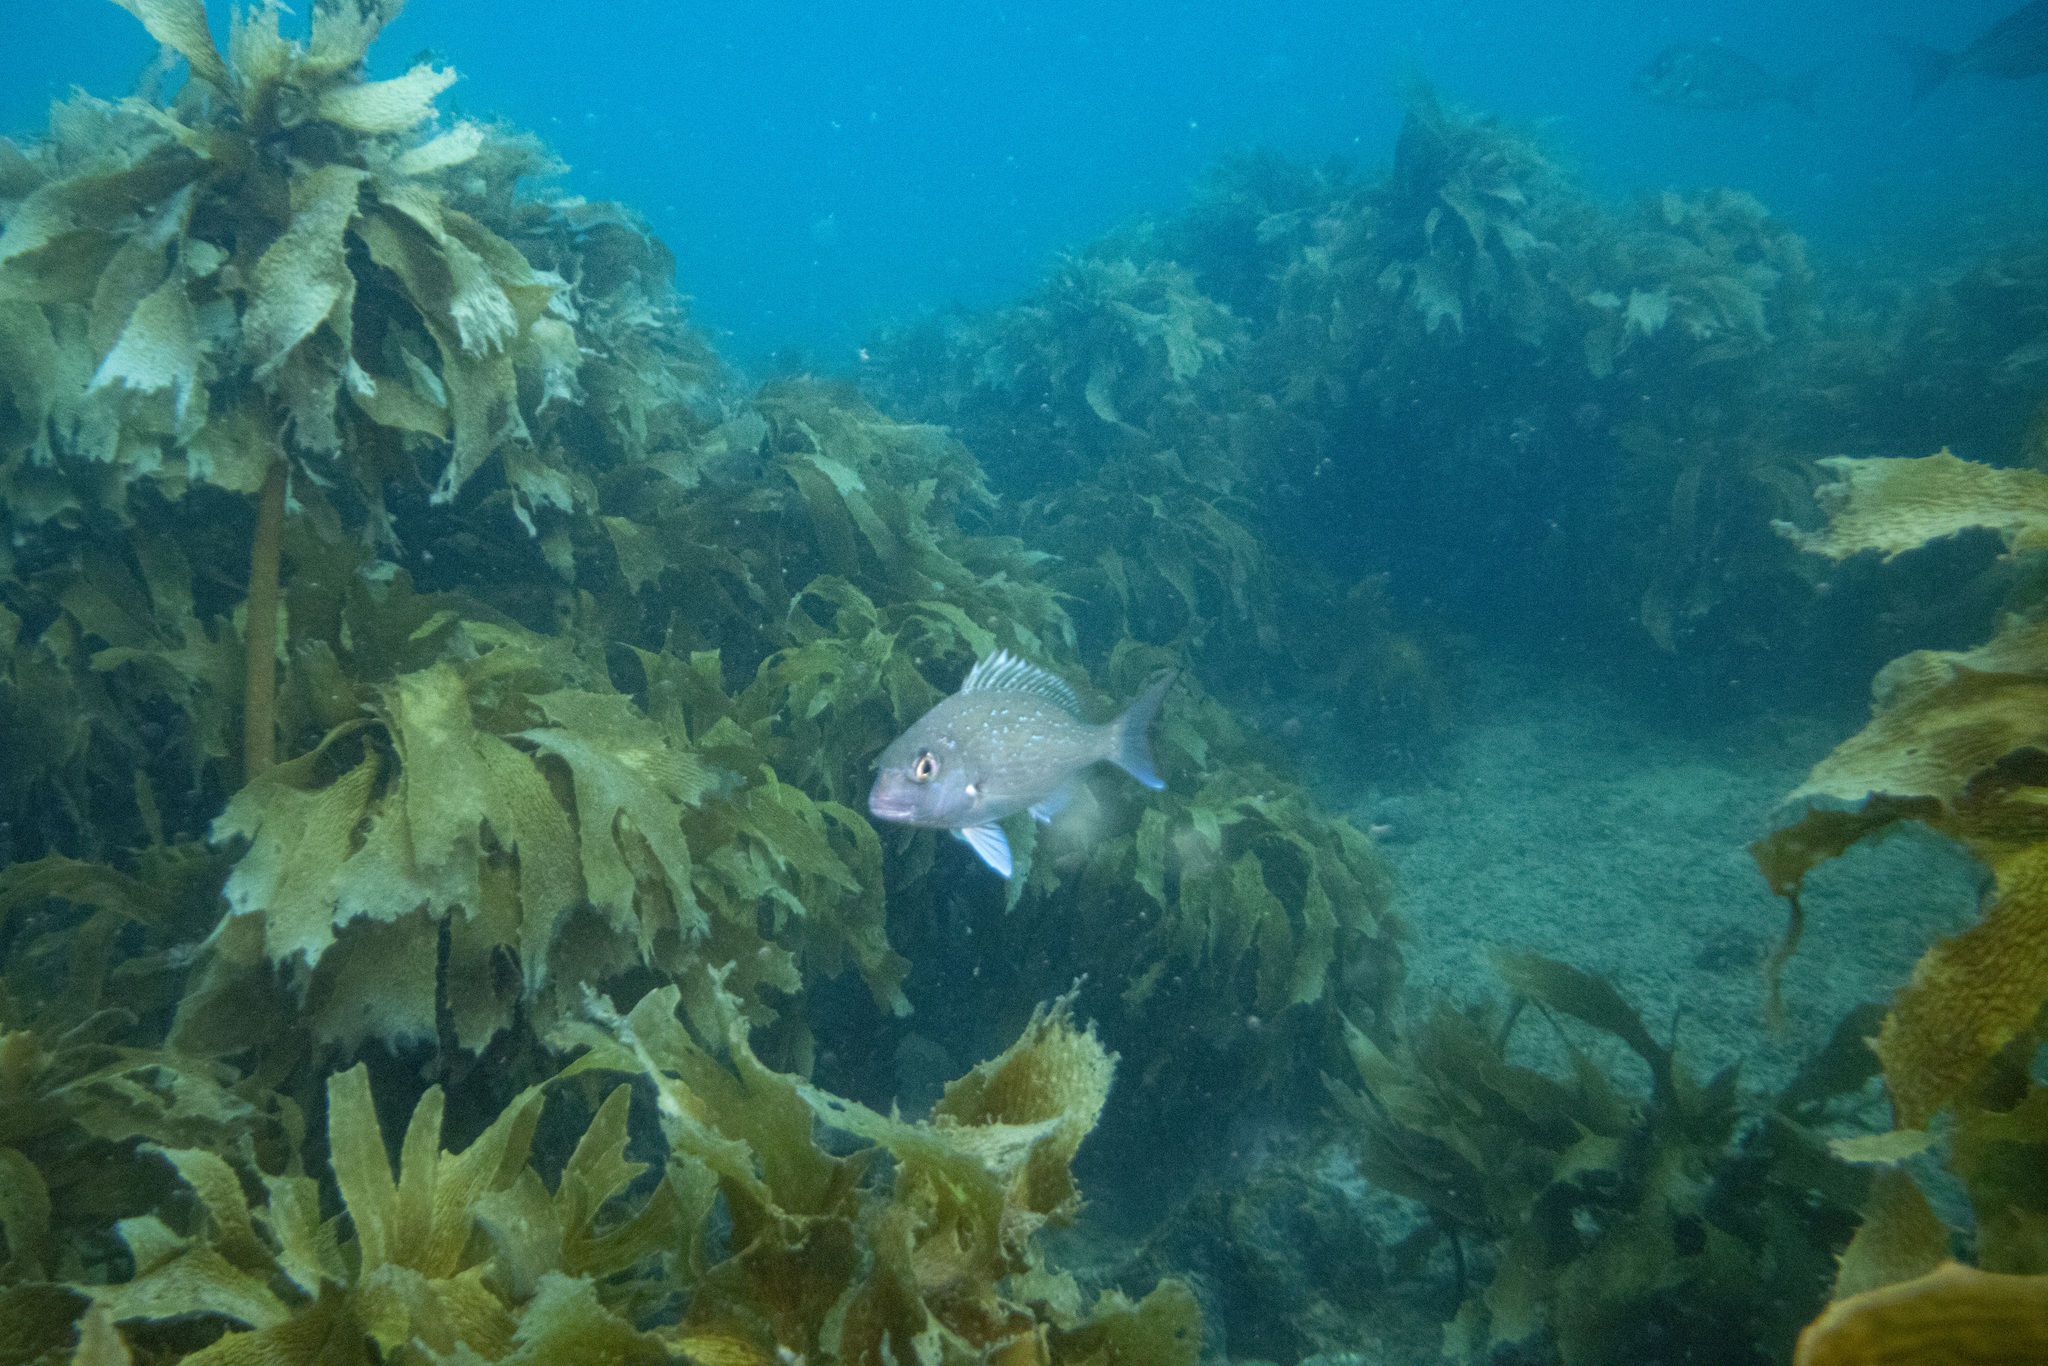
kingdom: Animalia
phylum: Chordata
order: Perciformes
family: Sparidae
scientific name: Sparidae
